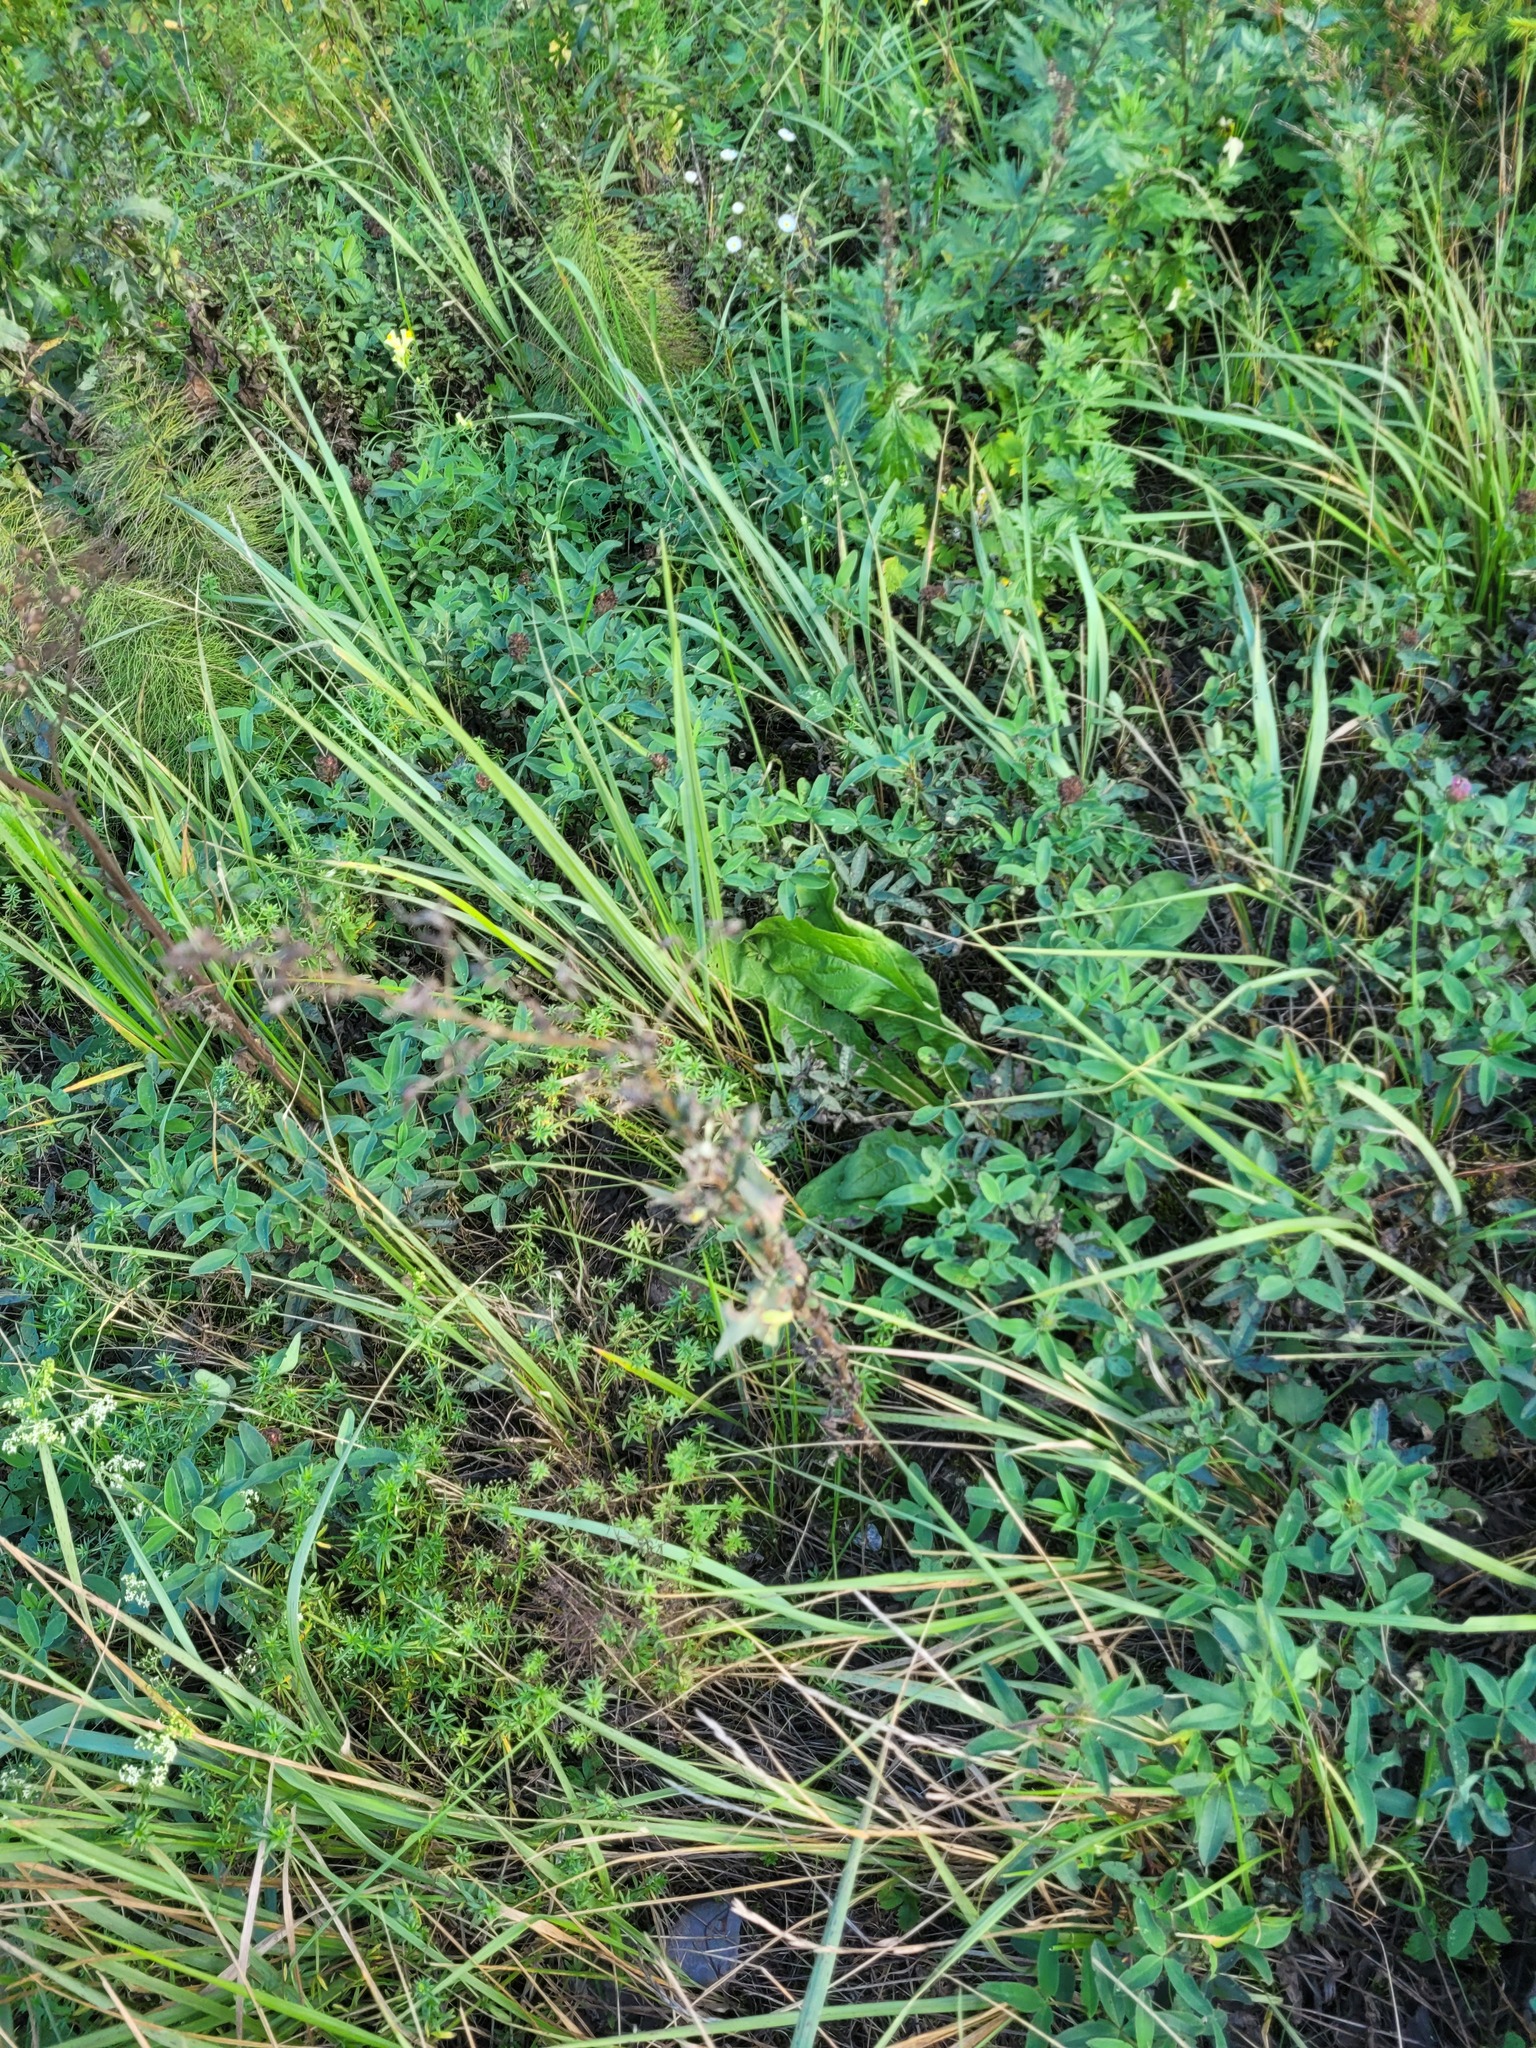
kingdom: Plantae
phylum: Tracheophyta
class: Magnoliopsida
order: Asterales
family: Asteraceae
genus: Lactuca
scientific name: Lactuca serriola
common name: Prickly lettuce
